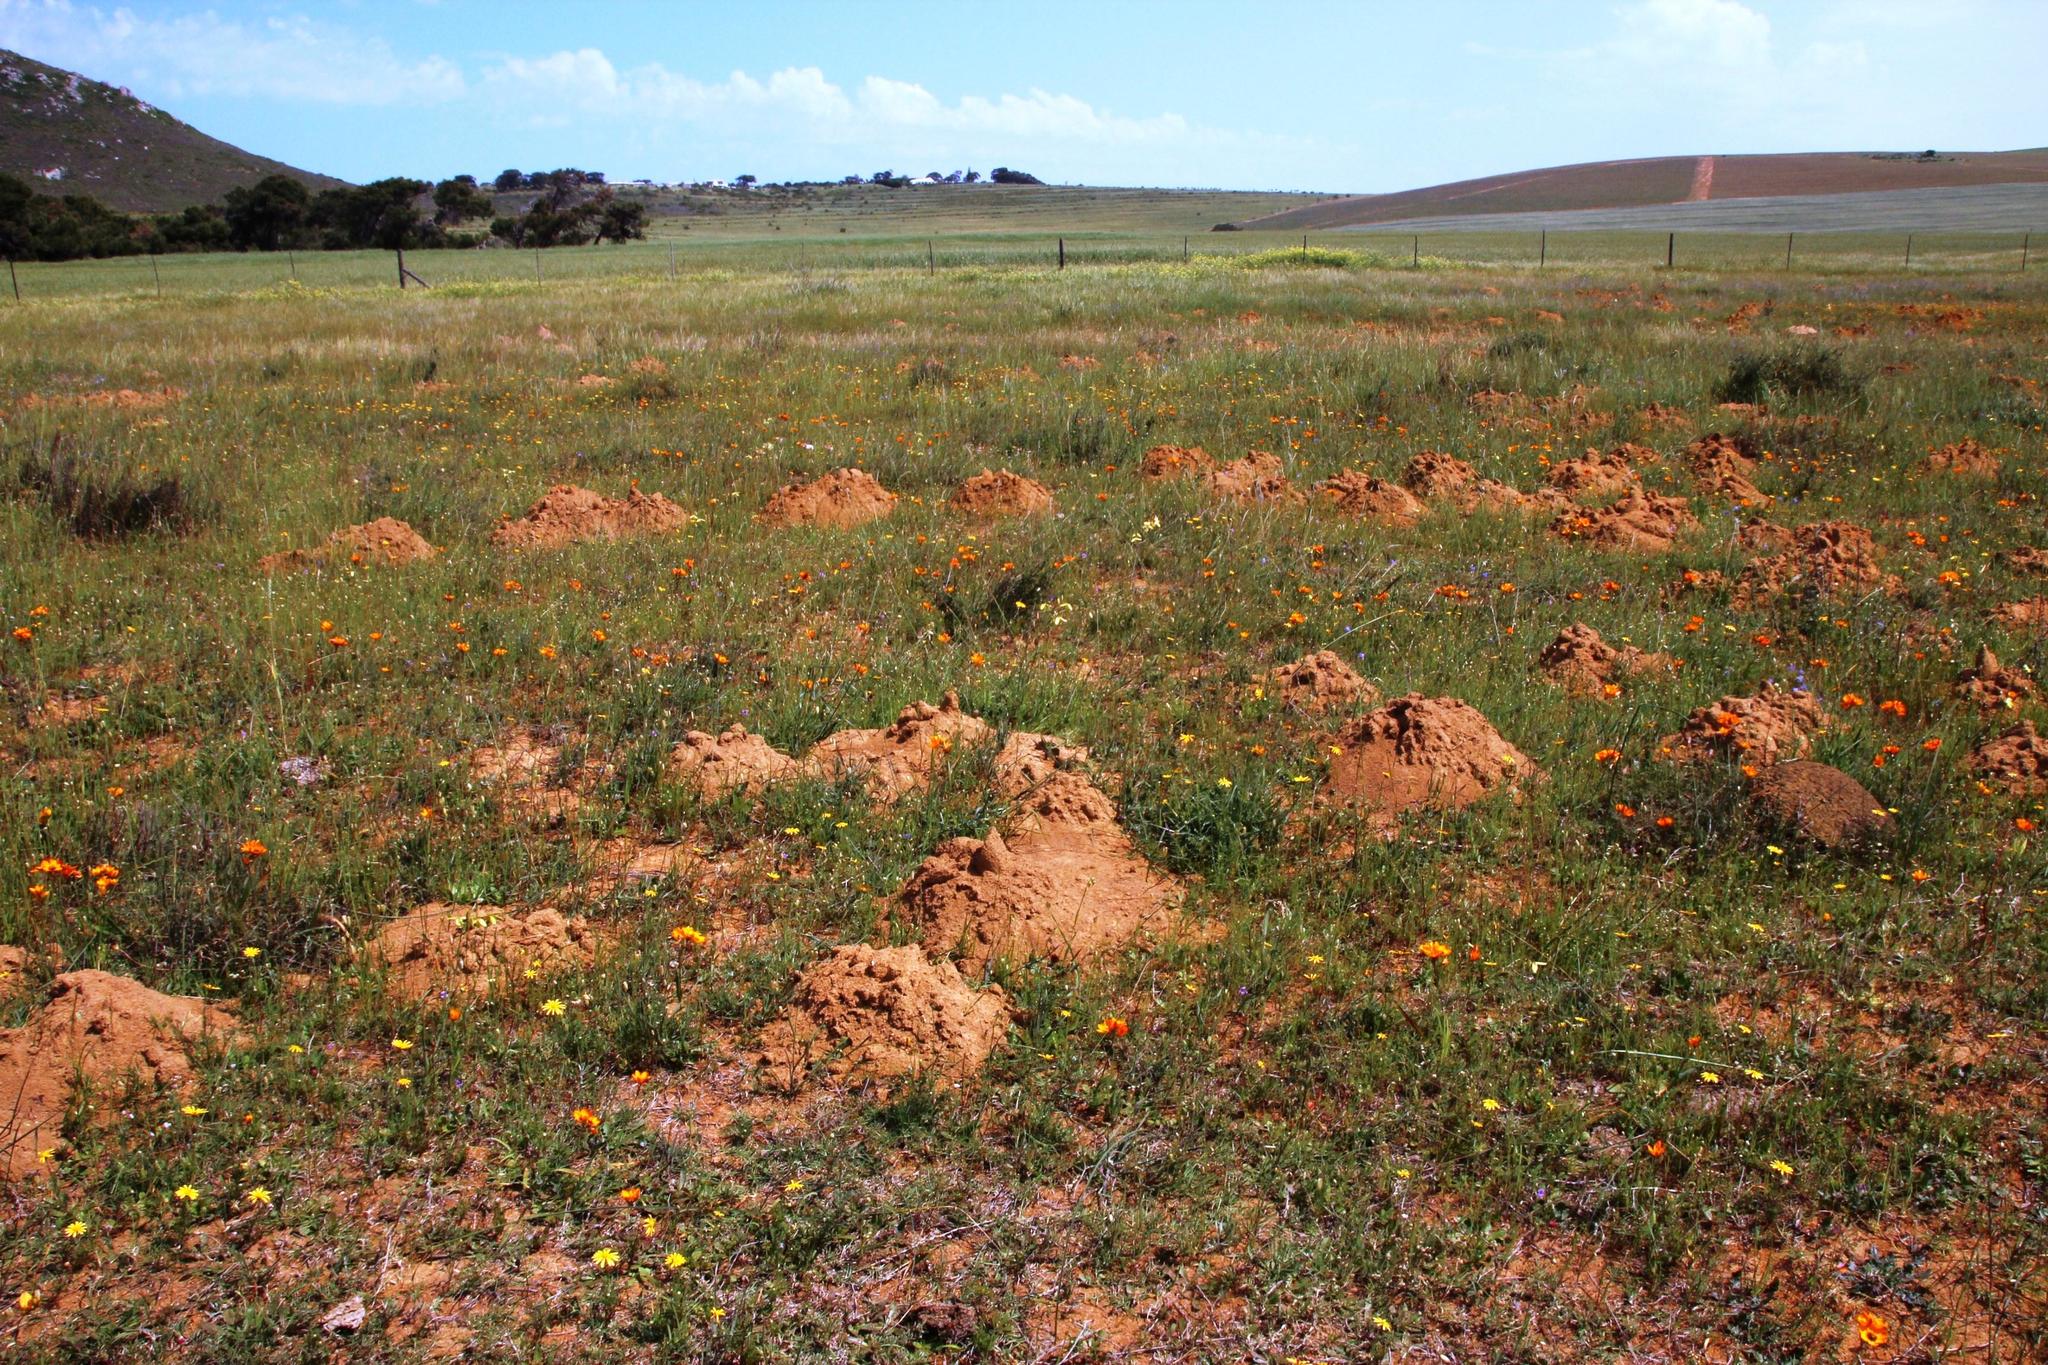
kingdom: Animalia
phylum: Chordata
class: Mammalia
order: Rodentia
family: Bathyergidae
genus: Bathyergus
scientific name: Bathyergus suillus
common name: Cape dune mole rat
